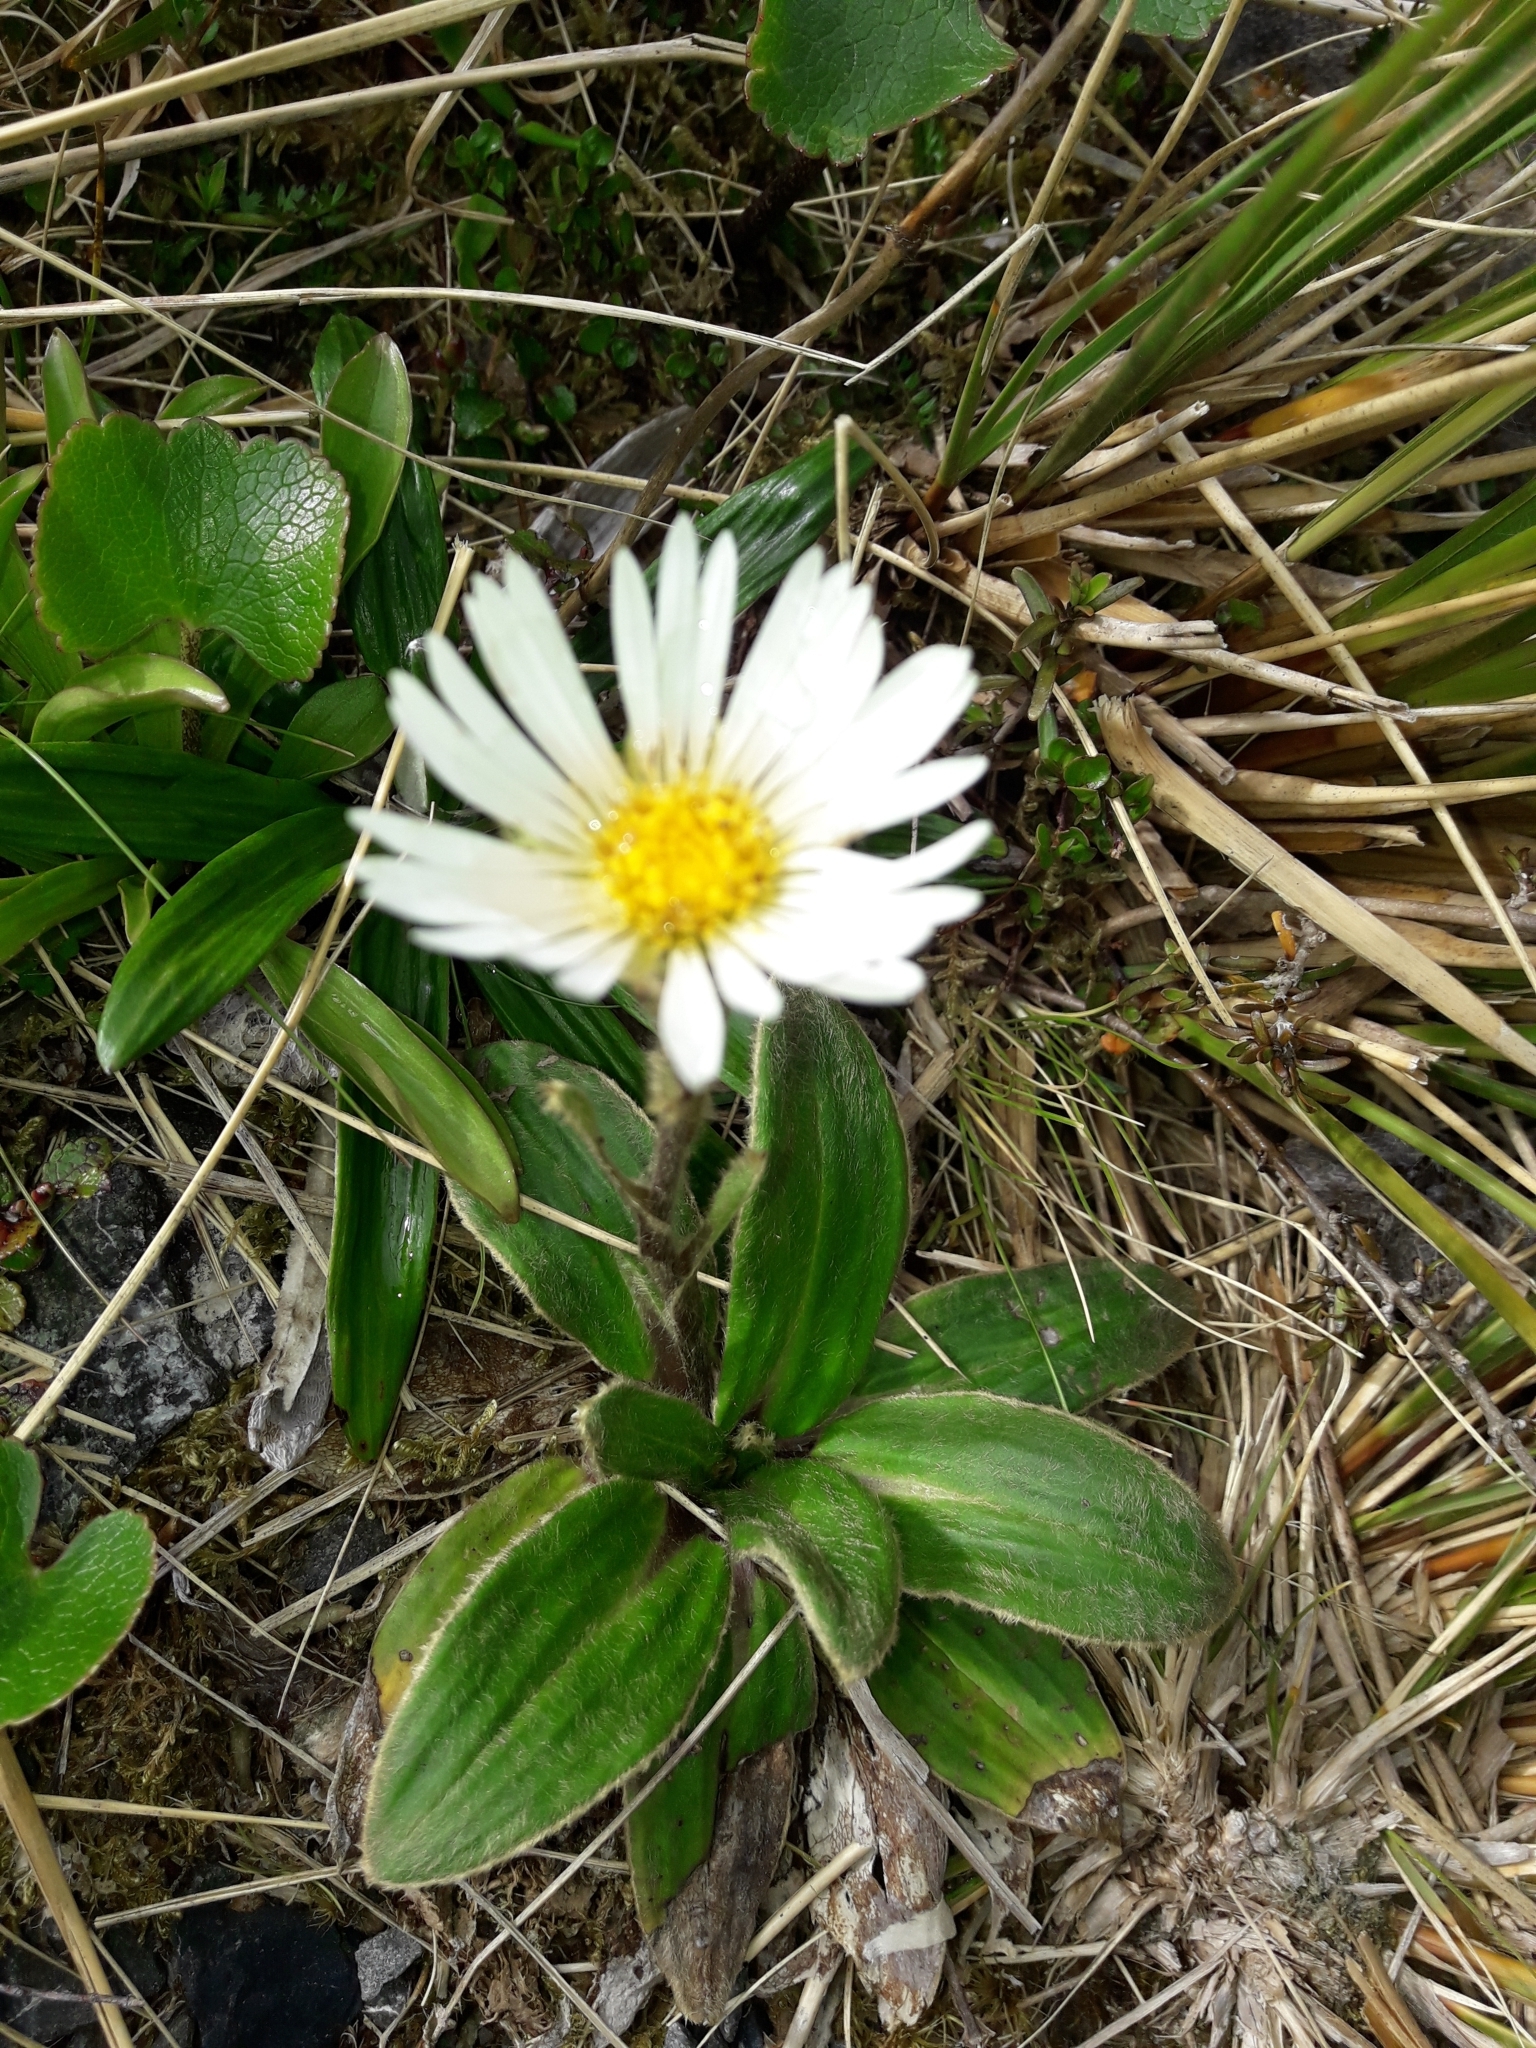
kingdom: Plantae
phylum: Tracheophyta
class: Magnoliopsida
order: Asterales
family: Asteraceae
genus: Celmisia
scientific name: Celmisia verbascifolia
